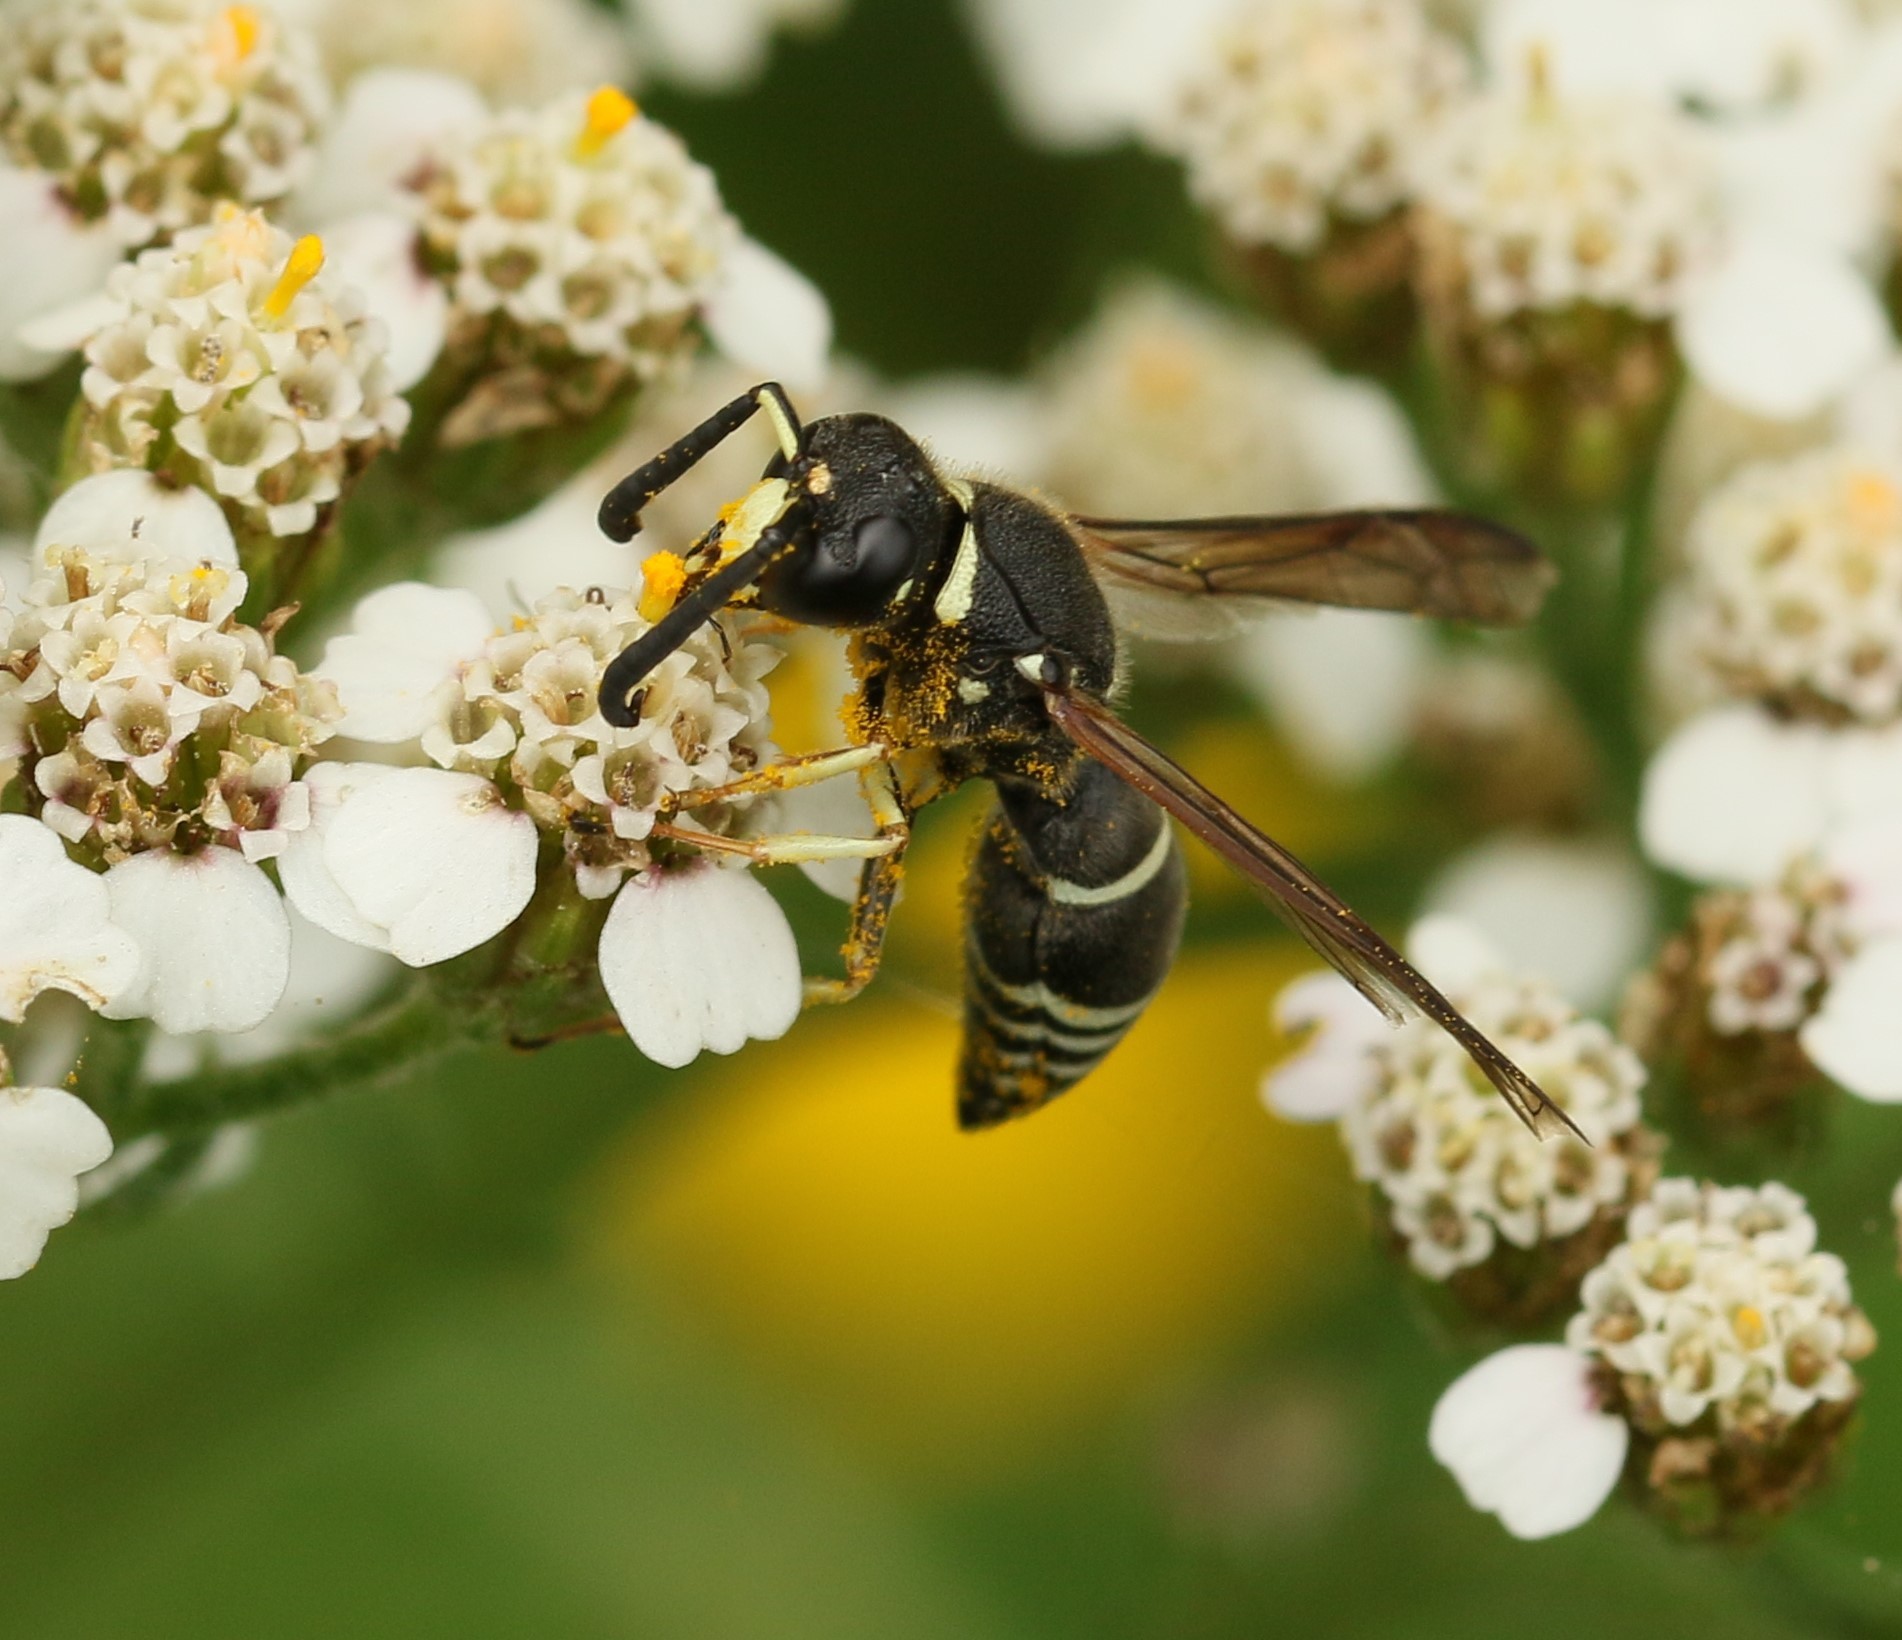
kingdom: Animalia
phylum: Arthropoda
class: Insecta
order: Hymenoptera
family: Eumenidae
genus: Euodynerus
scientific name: Euodynerus leucomelas
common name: Wasp
